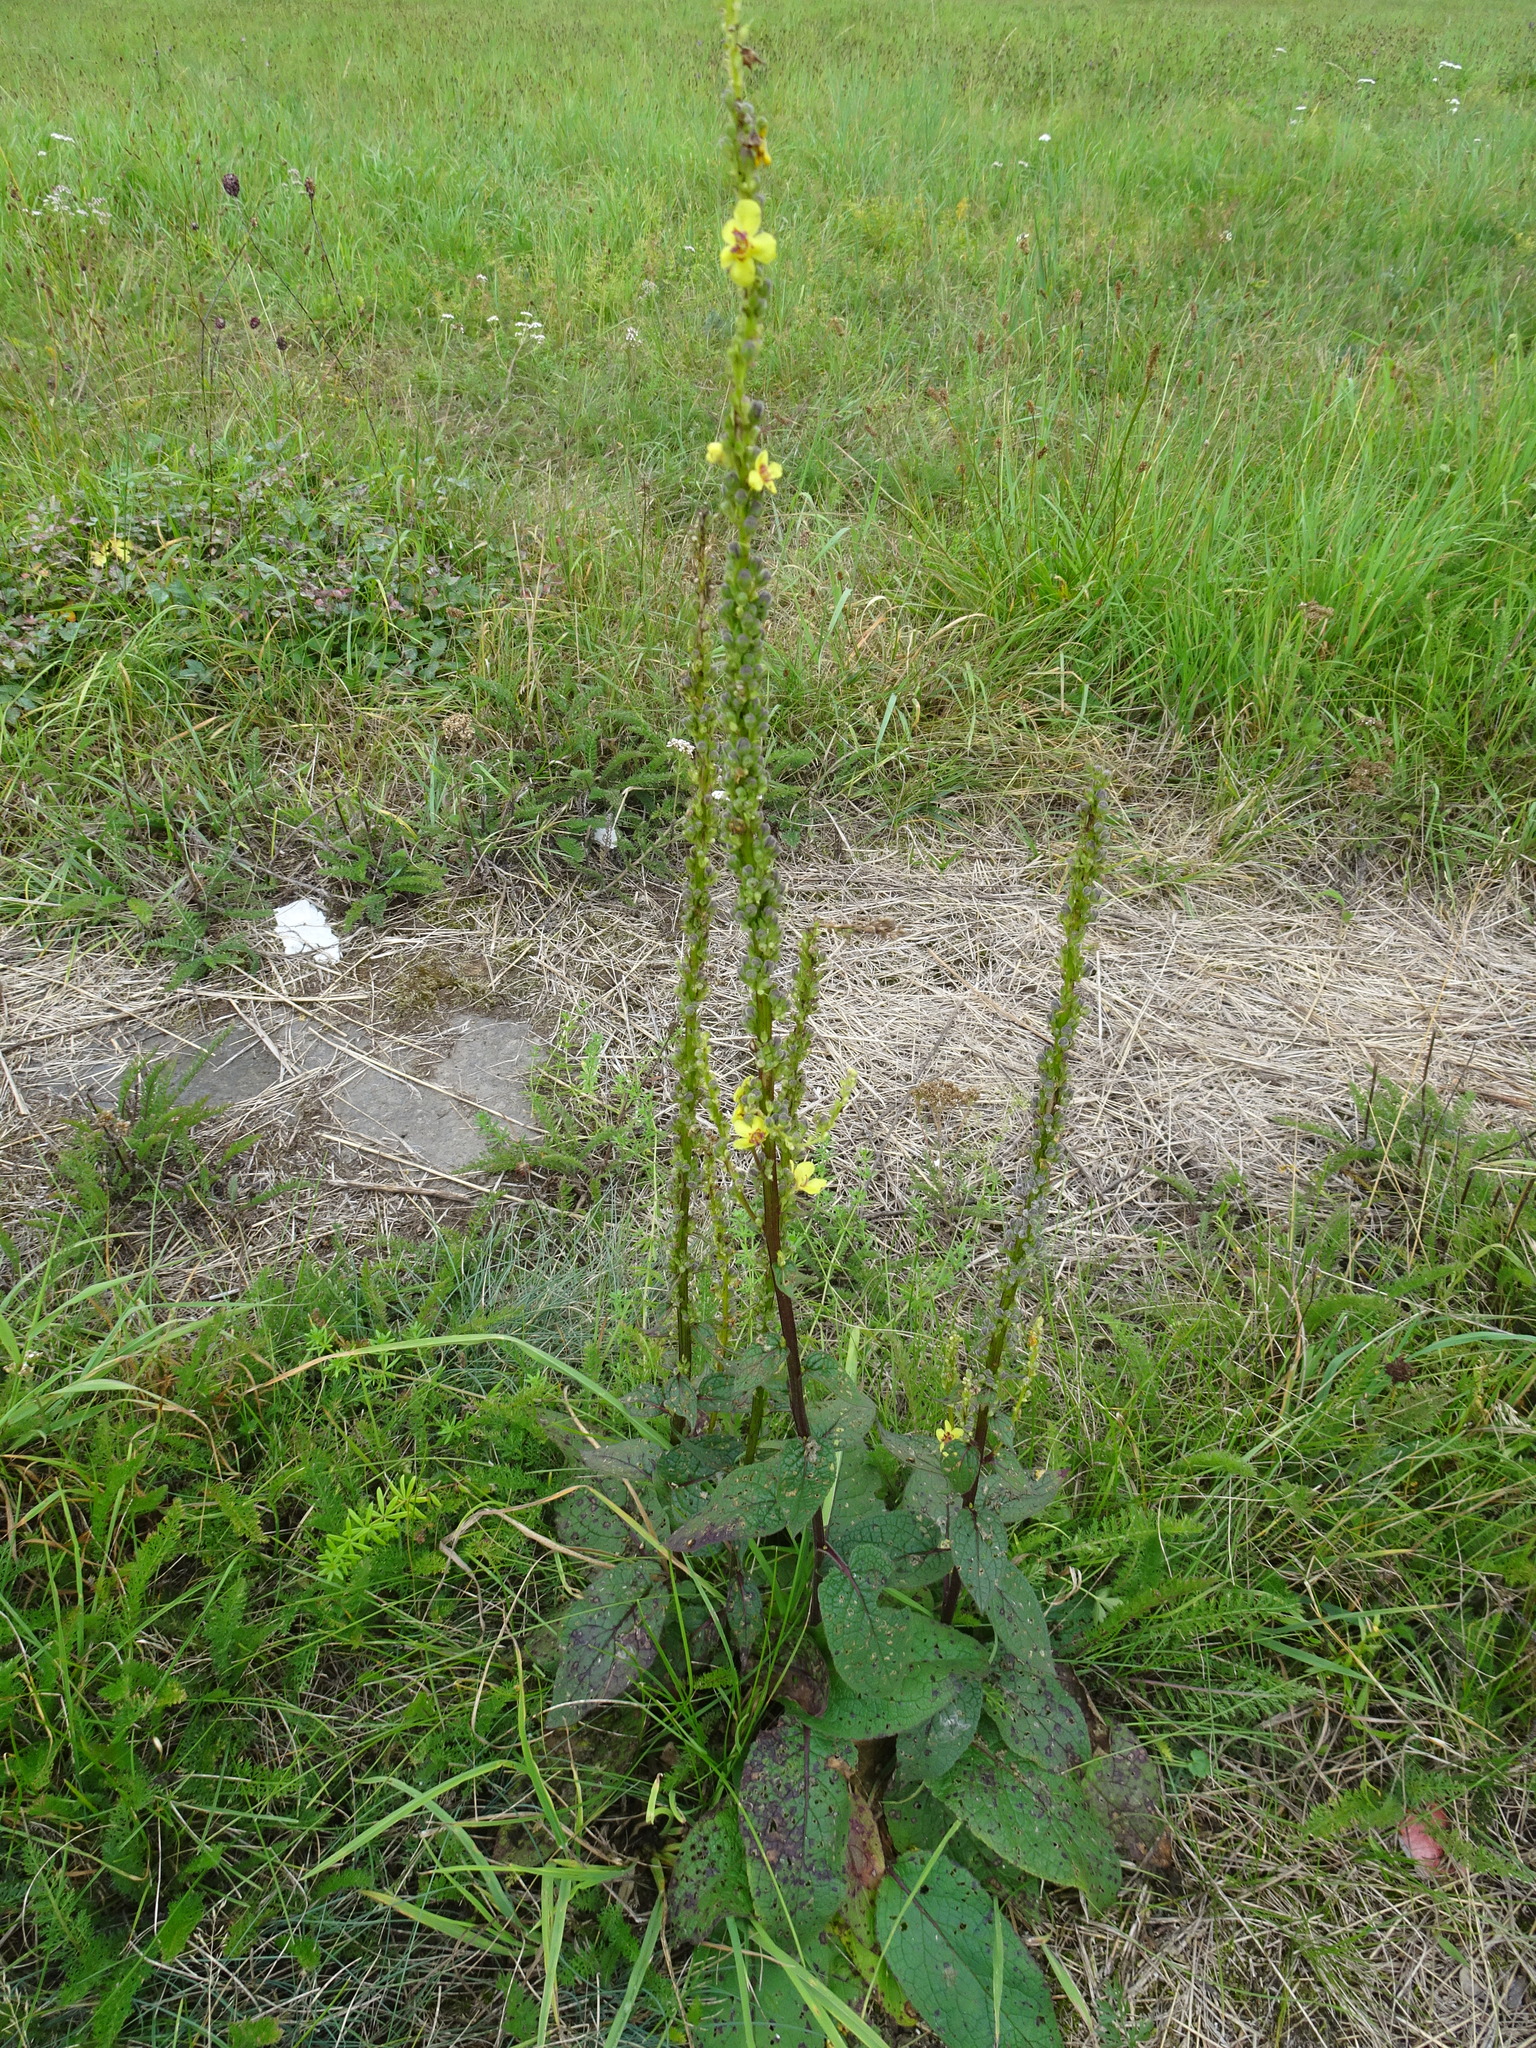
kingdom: Plantae
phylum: Tracheophyta
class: Magnoliopsida
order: Lamiales
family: Scrophulariaceae
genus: Verbascum
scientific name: Verbascum nigrum
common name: Dark mullein
